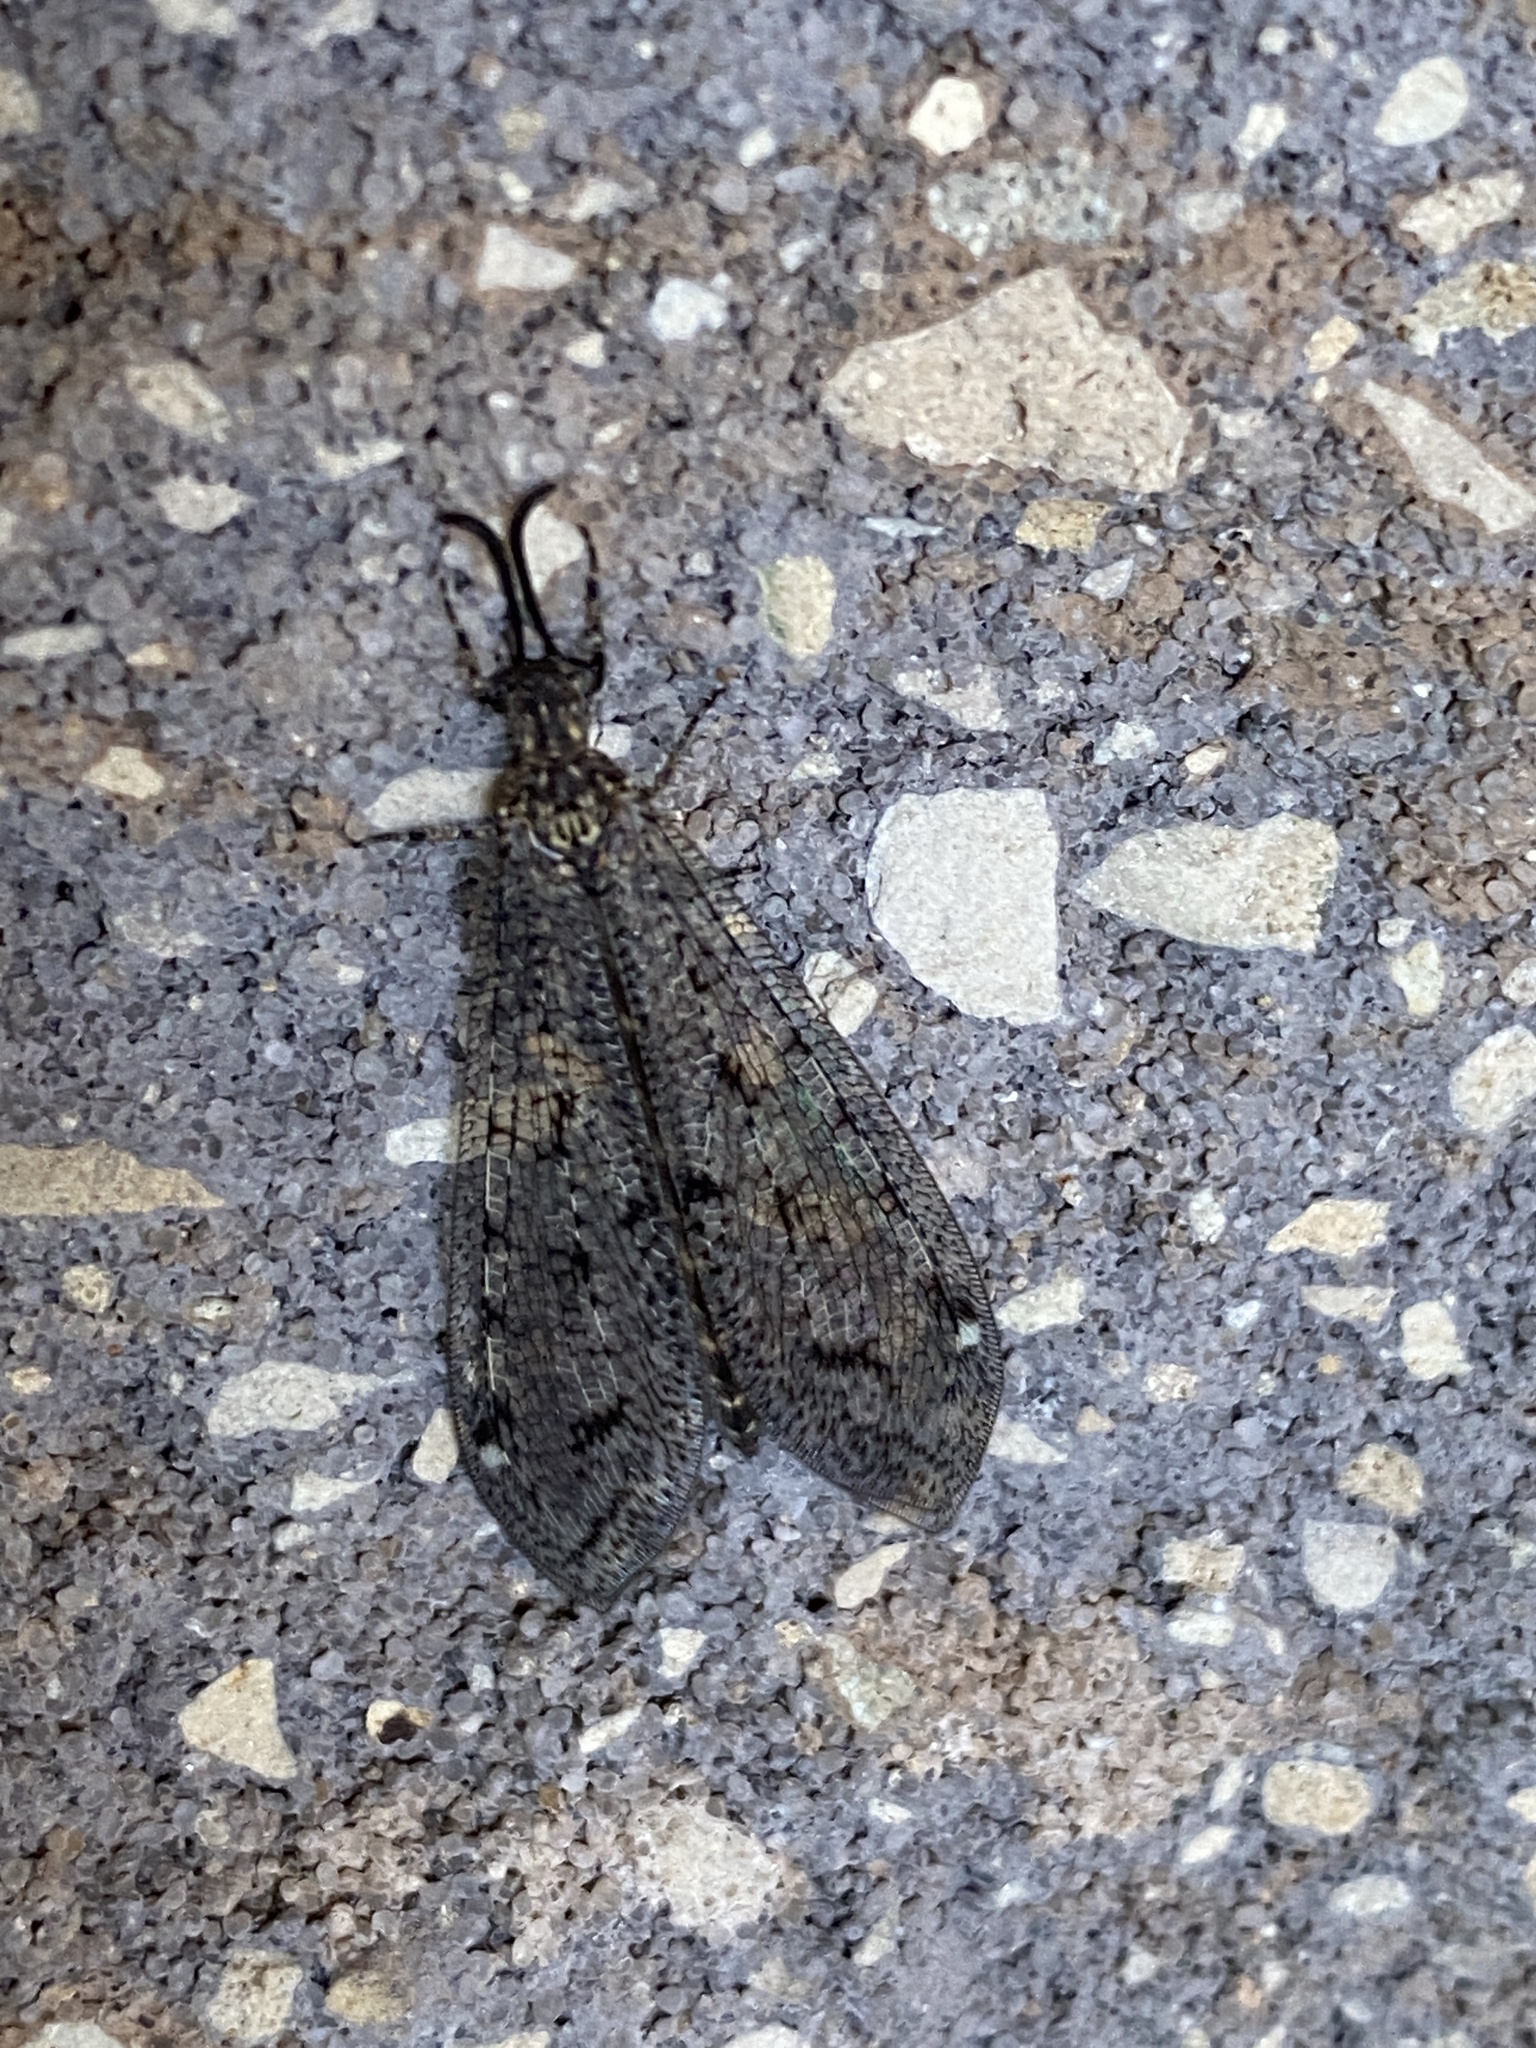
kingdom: Animalia
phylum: Arthropoda
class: Insecta
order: Neuroptera
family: Myrmeleontidae
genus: Brachynemurus
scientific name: Brachynemurus nebulosus
